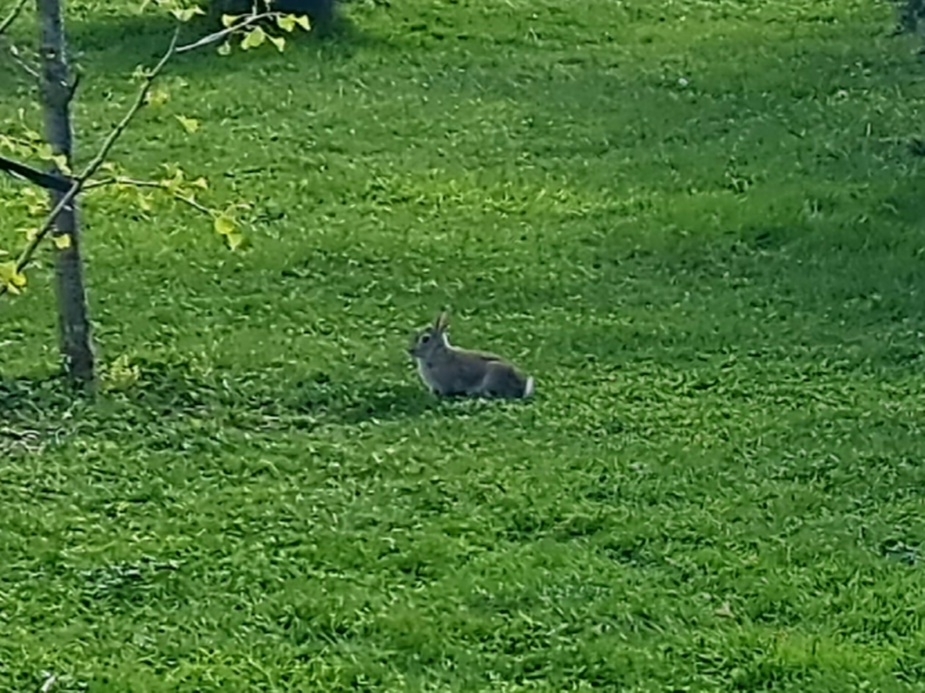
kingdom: Animalia
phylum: Chordata
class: Mammalia
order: Lagomorpha
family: Leporidae
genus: Oryctolagus
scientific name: Oryctolagus cuniculus
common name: European rabbit
